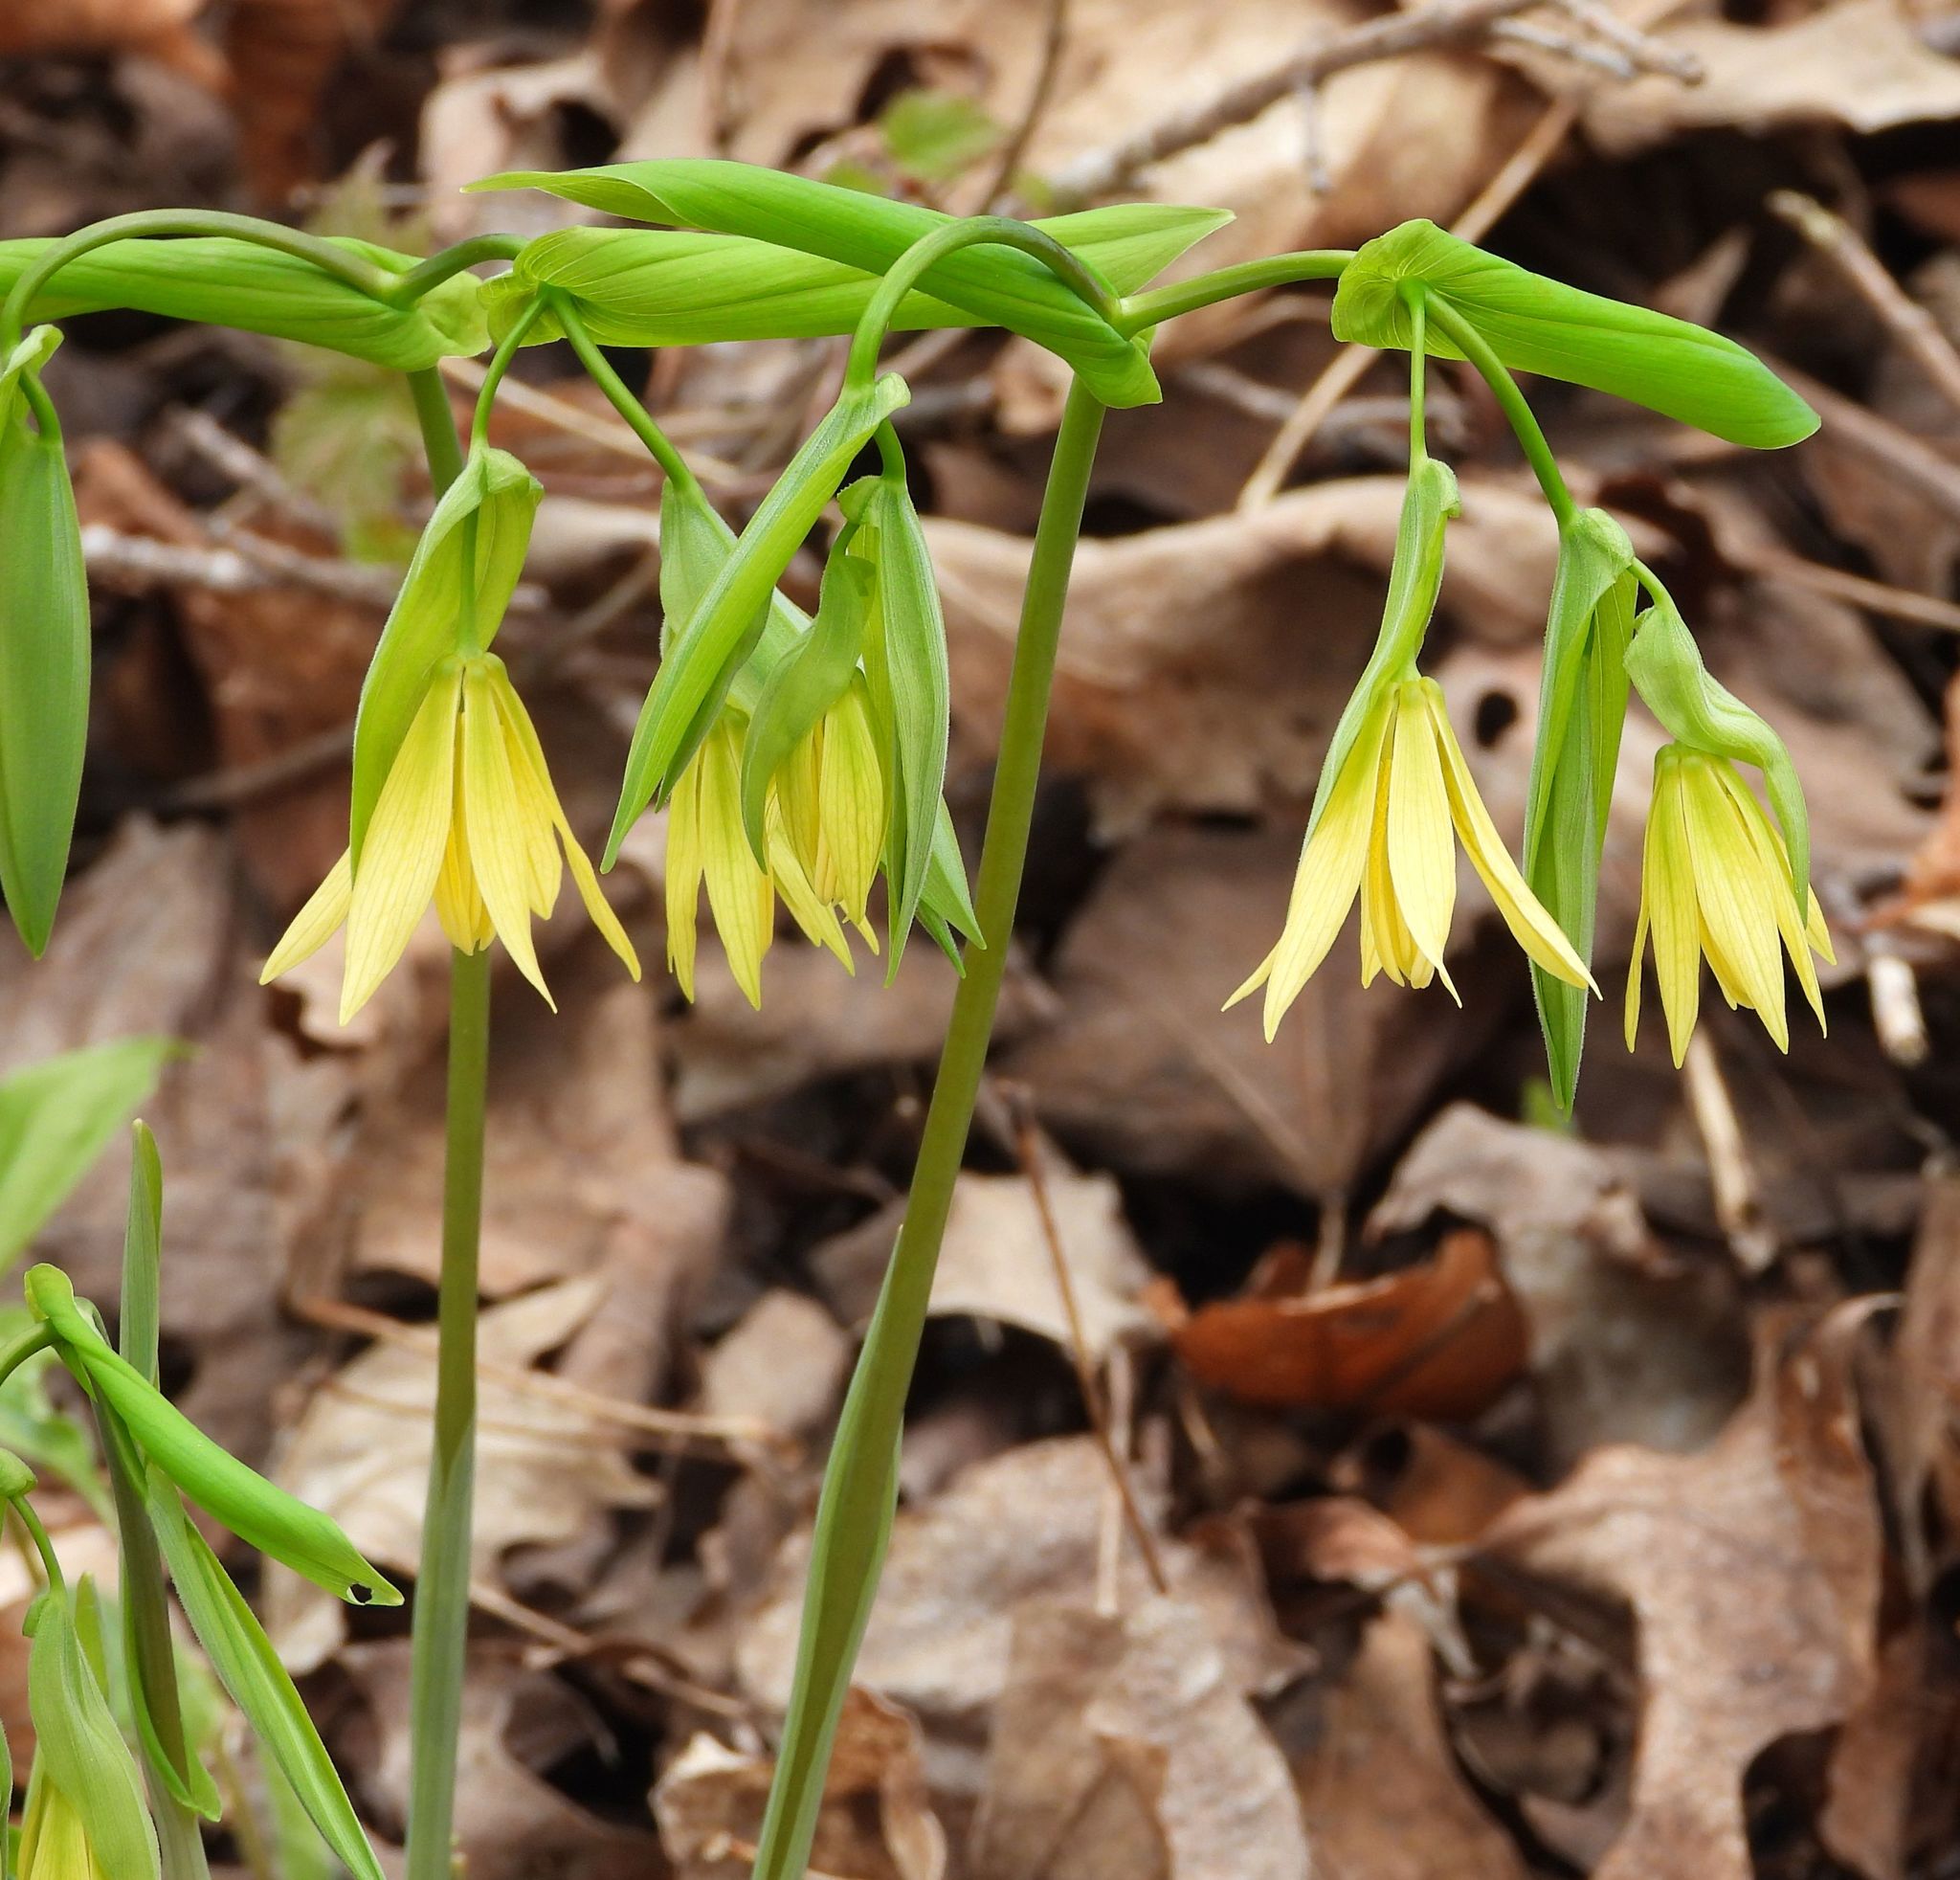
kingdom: Plantae
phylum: Tracheophyta
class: Liliopsida
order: Liliales
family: Colchicaceae
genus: Uvularia
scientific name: Uvularia grandiflora
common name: Bellwort
